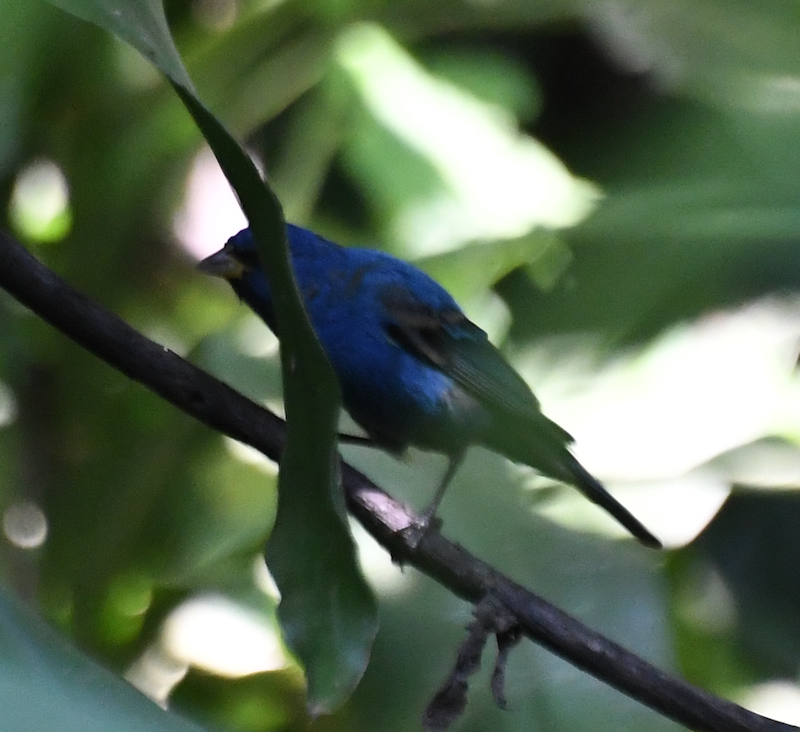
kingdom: Animalia
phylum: Chordata
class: Aves
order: Passeriformes
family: Cardinalidae
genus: Passerina
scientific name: Passerina cyanea
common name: Indigo bunting
